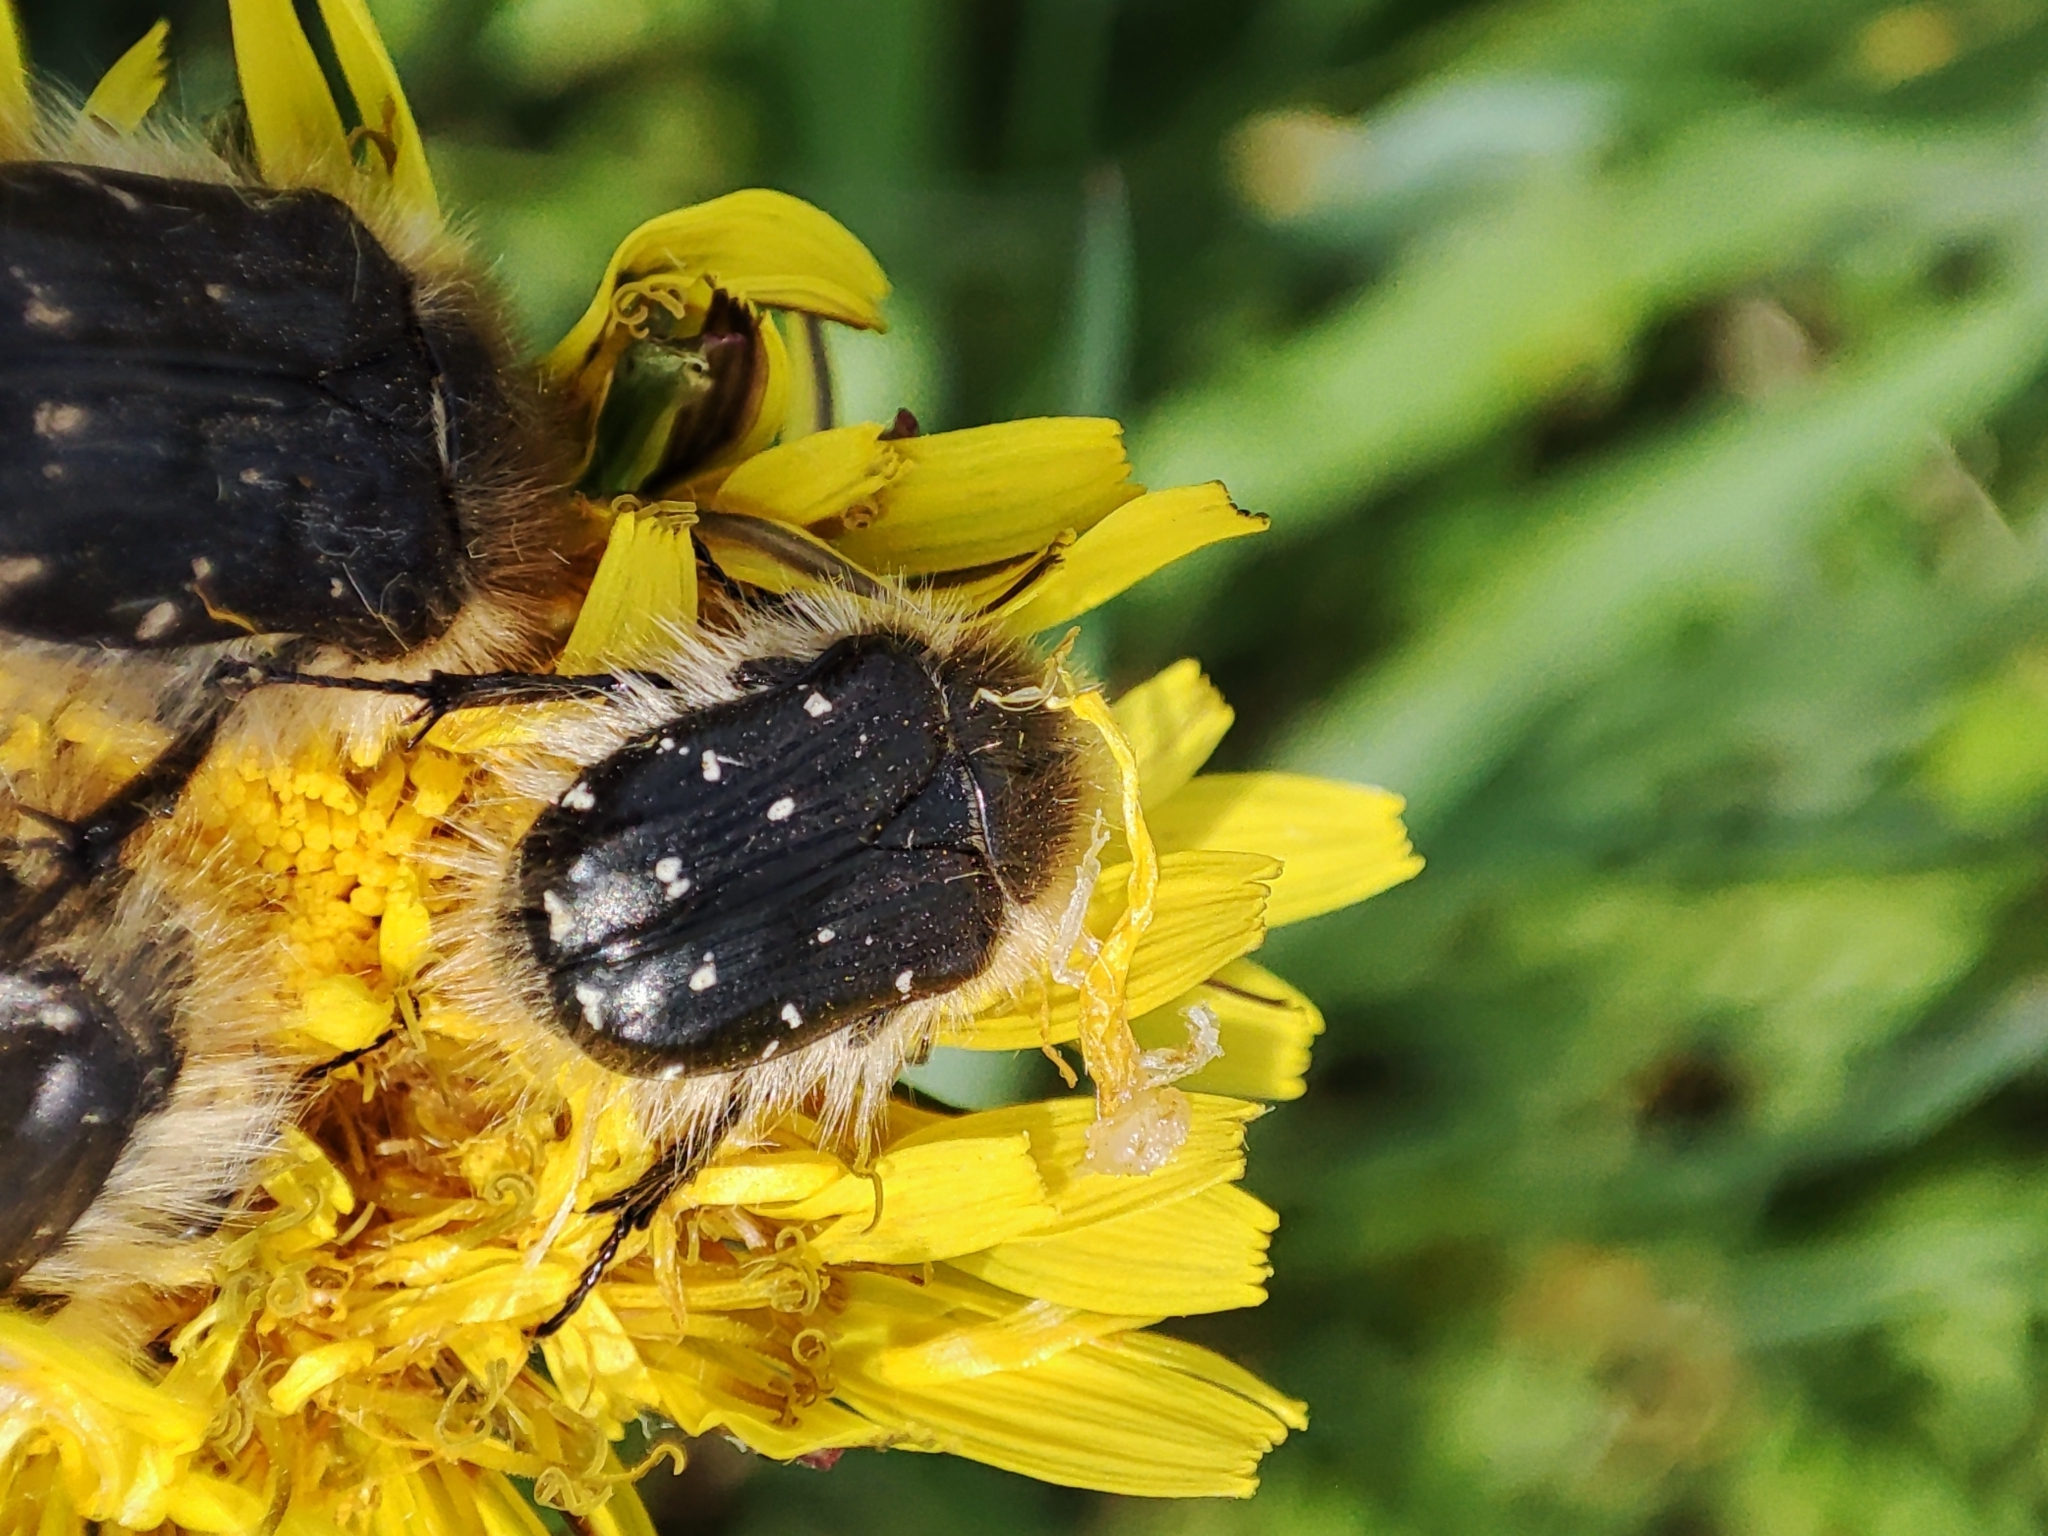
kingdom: Animalia
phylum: Arthropoda
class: Insecta
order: Coleoptera
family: Scarabaeidae
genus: Tropinota
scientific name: Tropinota hirta
